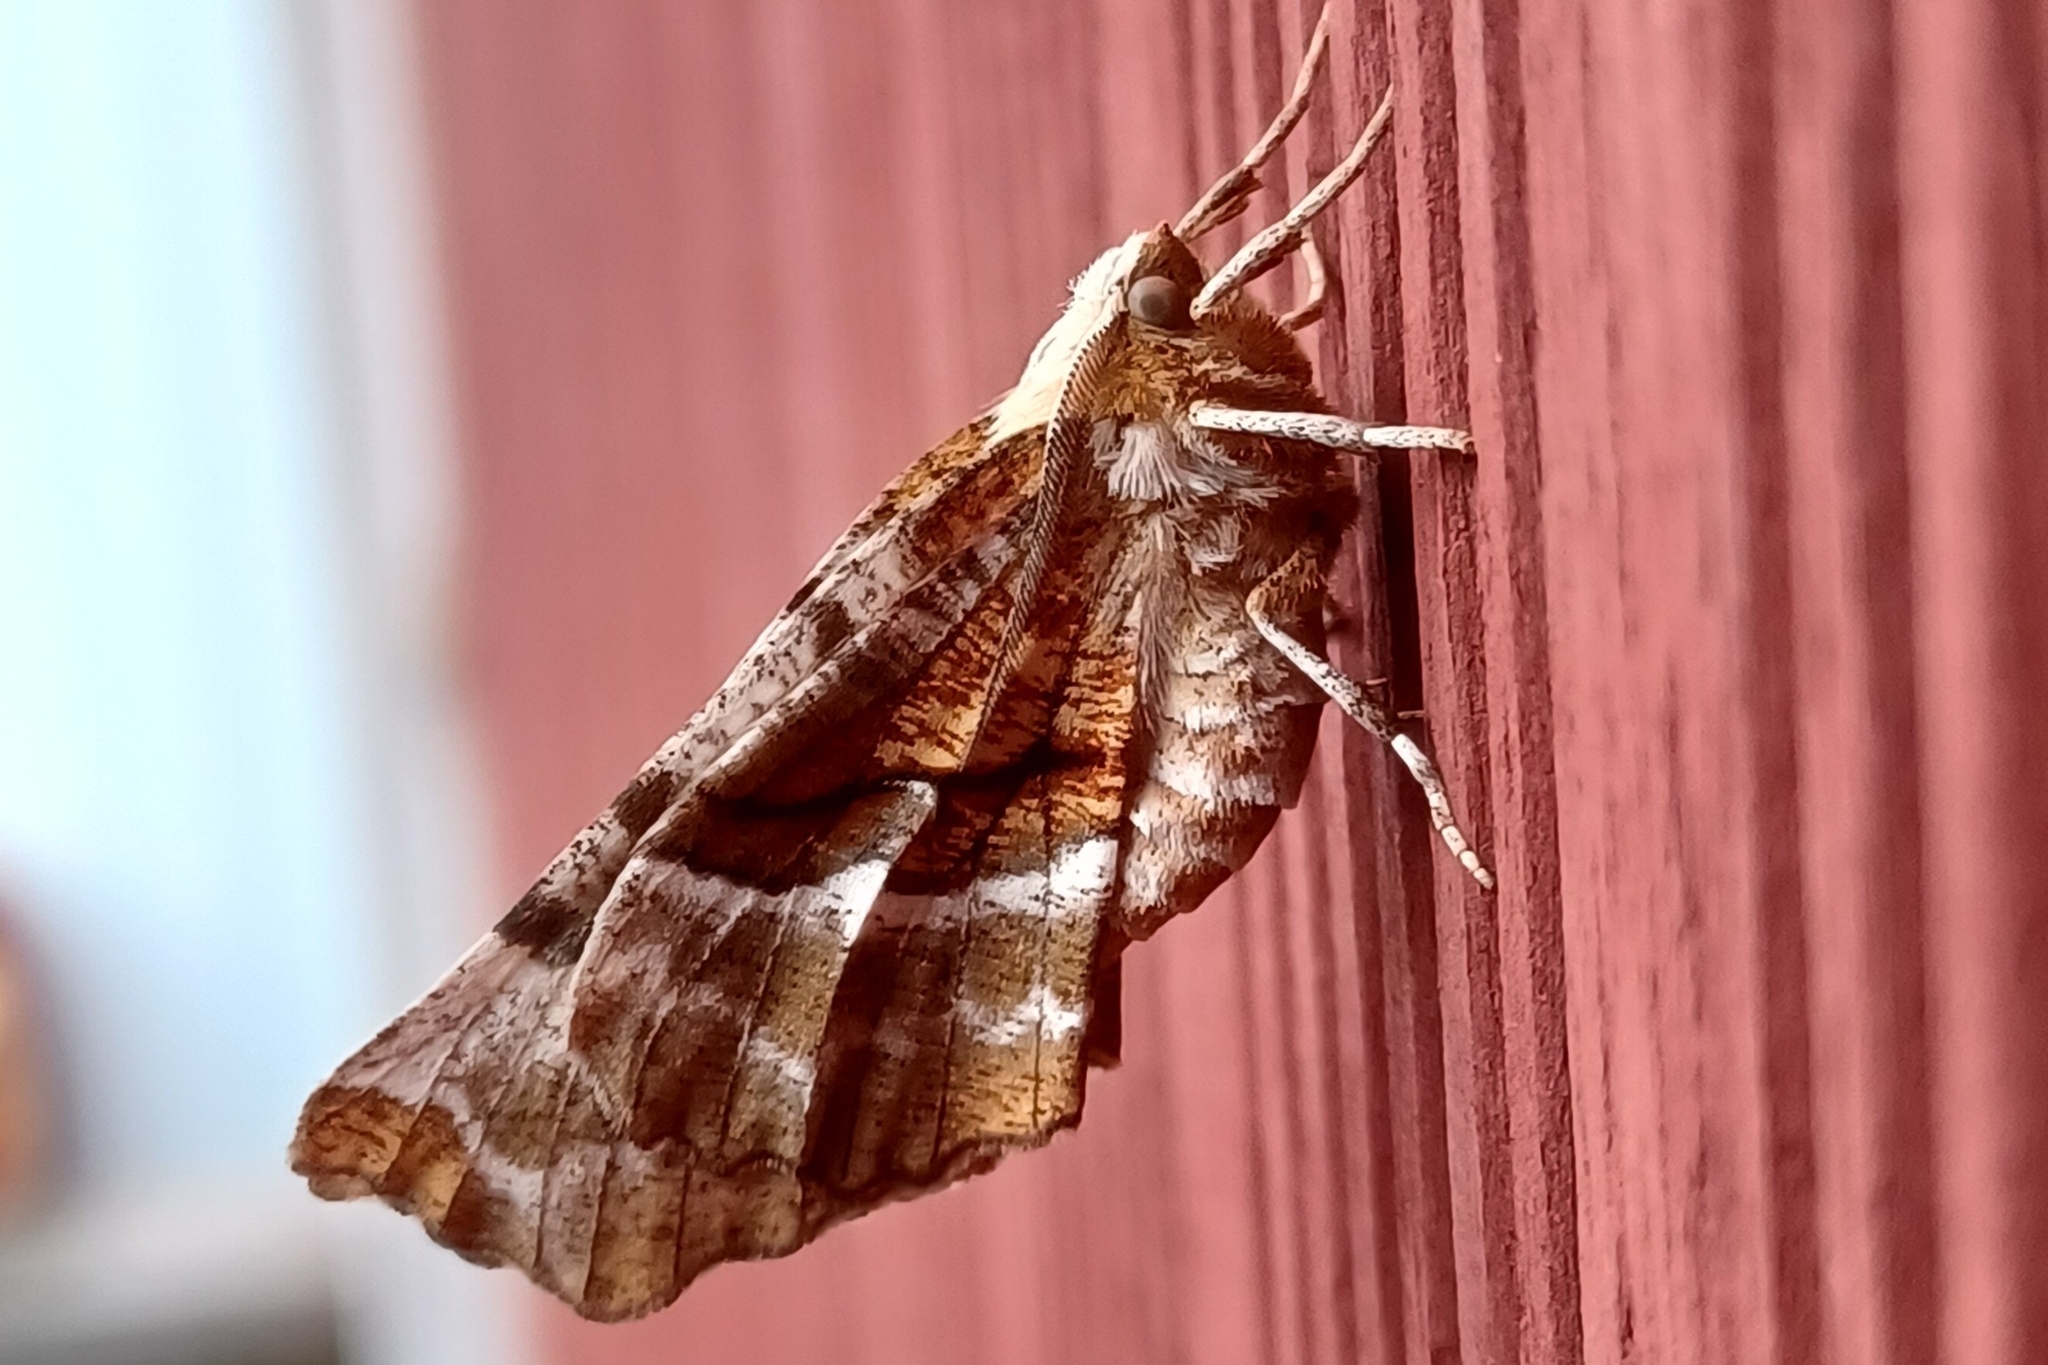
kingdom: Animalia
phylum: Arthropoda
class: Insecta
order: Lepidoptera
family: Geometridae
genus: Selenia
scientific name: Selenia kentaria
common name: Kent's geometer
